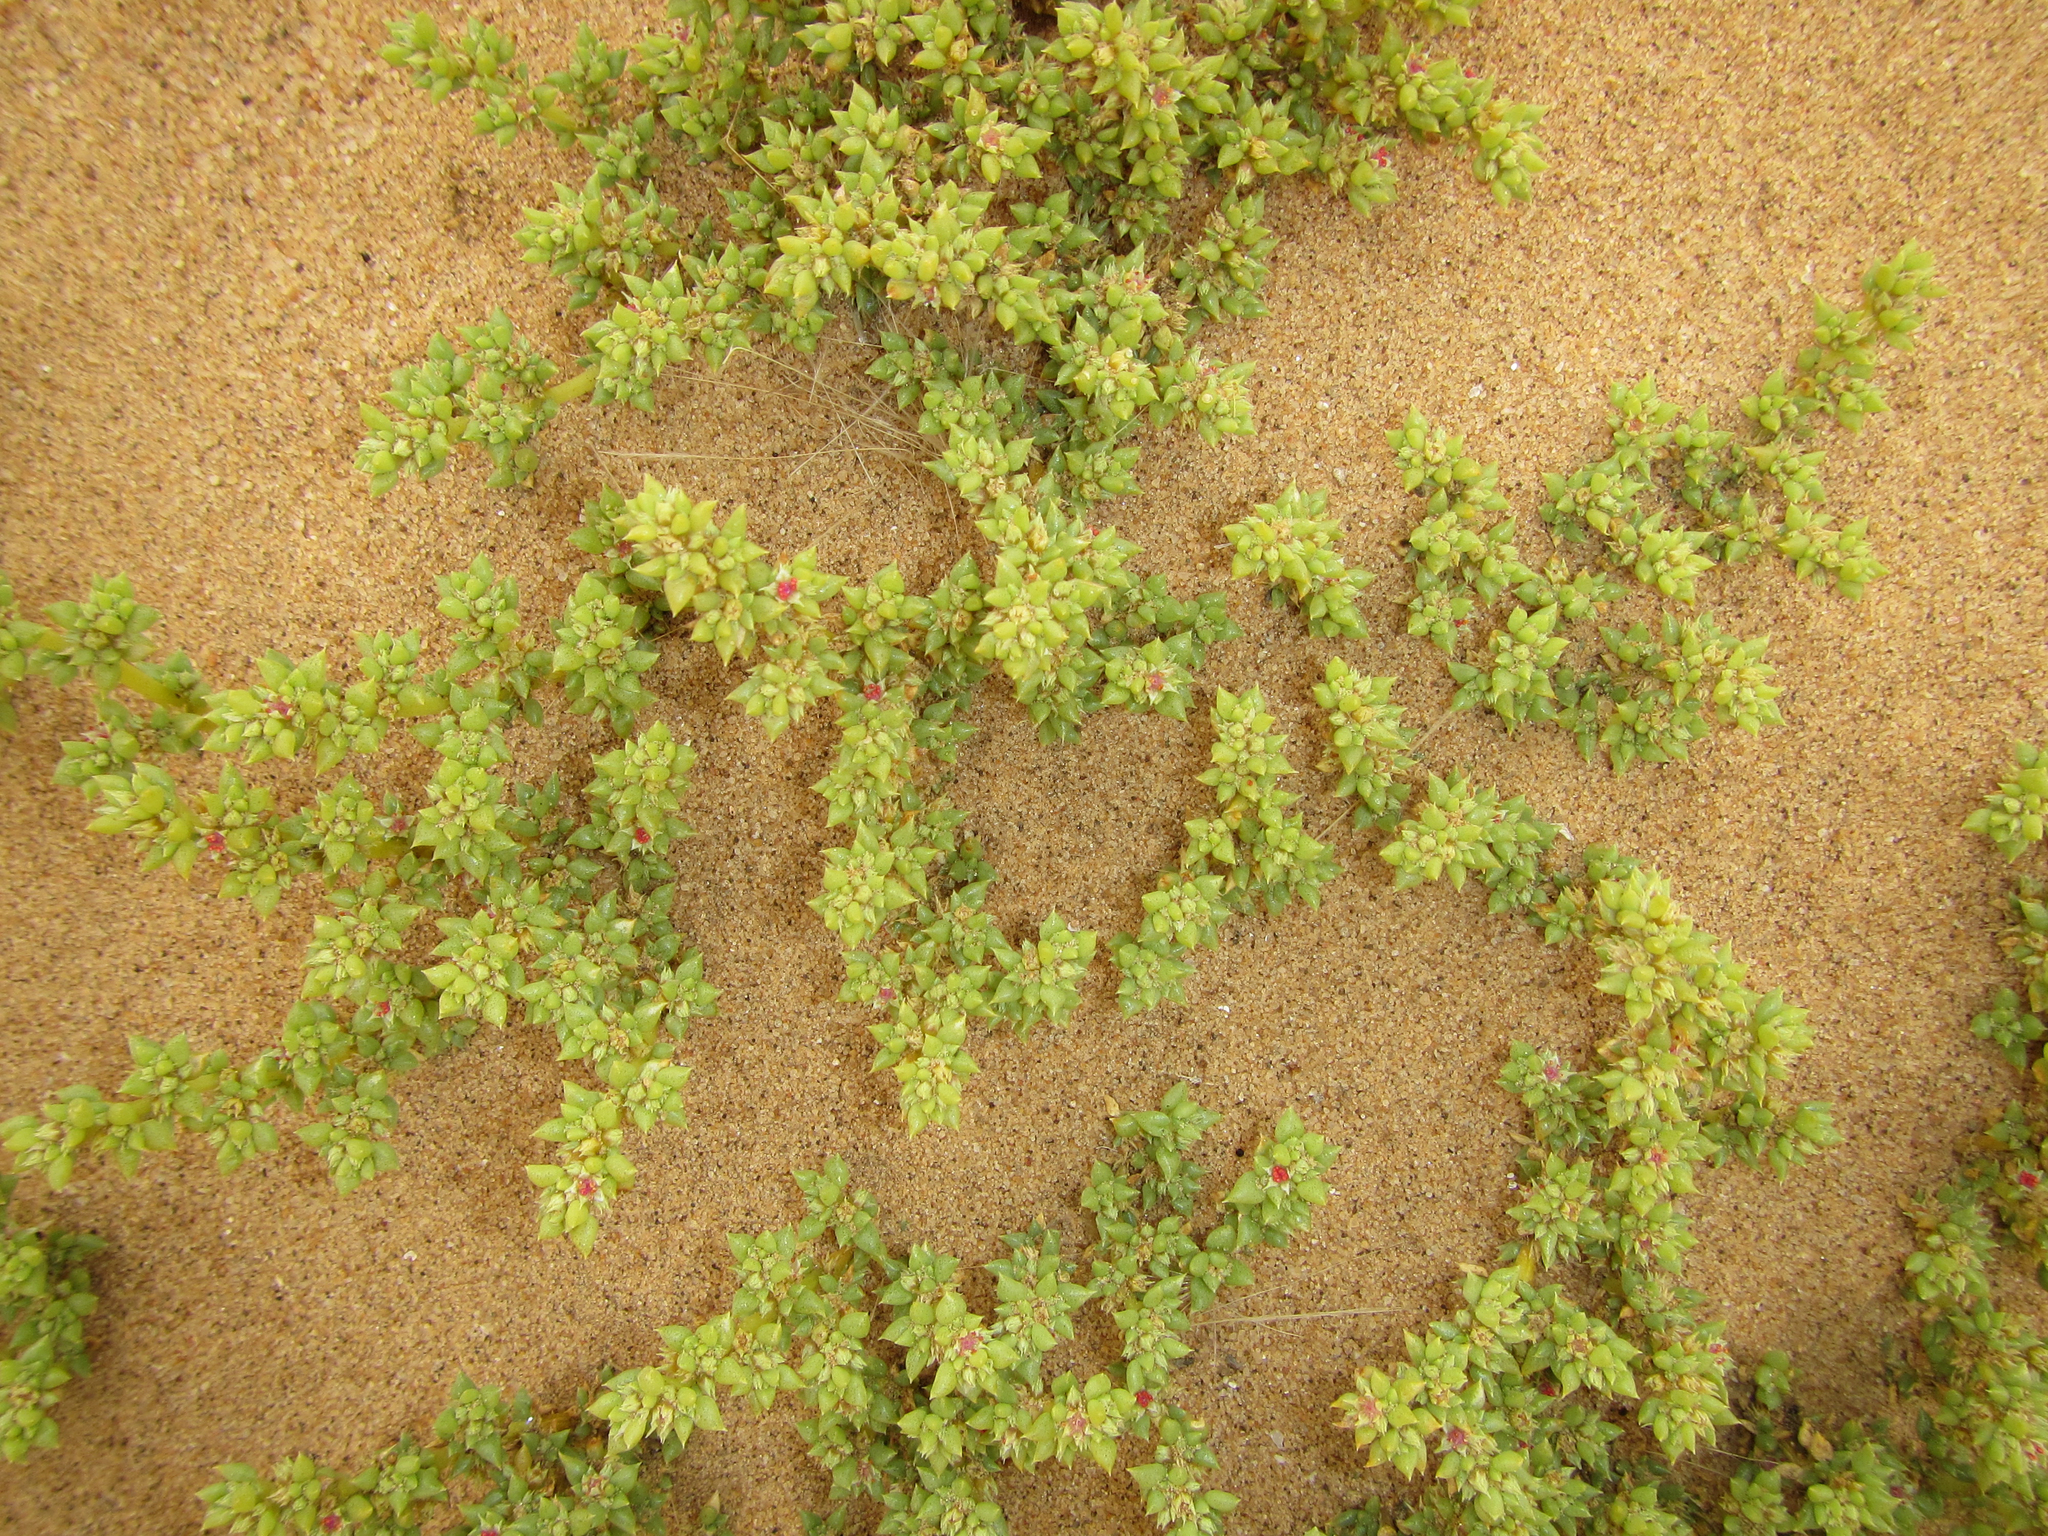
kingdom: Plantae
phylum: Tracheophyta
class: Magnoliopsida
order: Caryophyllales
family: Aizoaceae
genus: Trianthema
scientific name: Trianthema hereroensis
